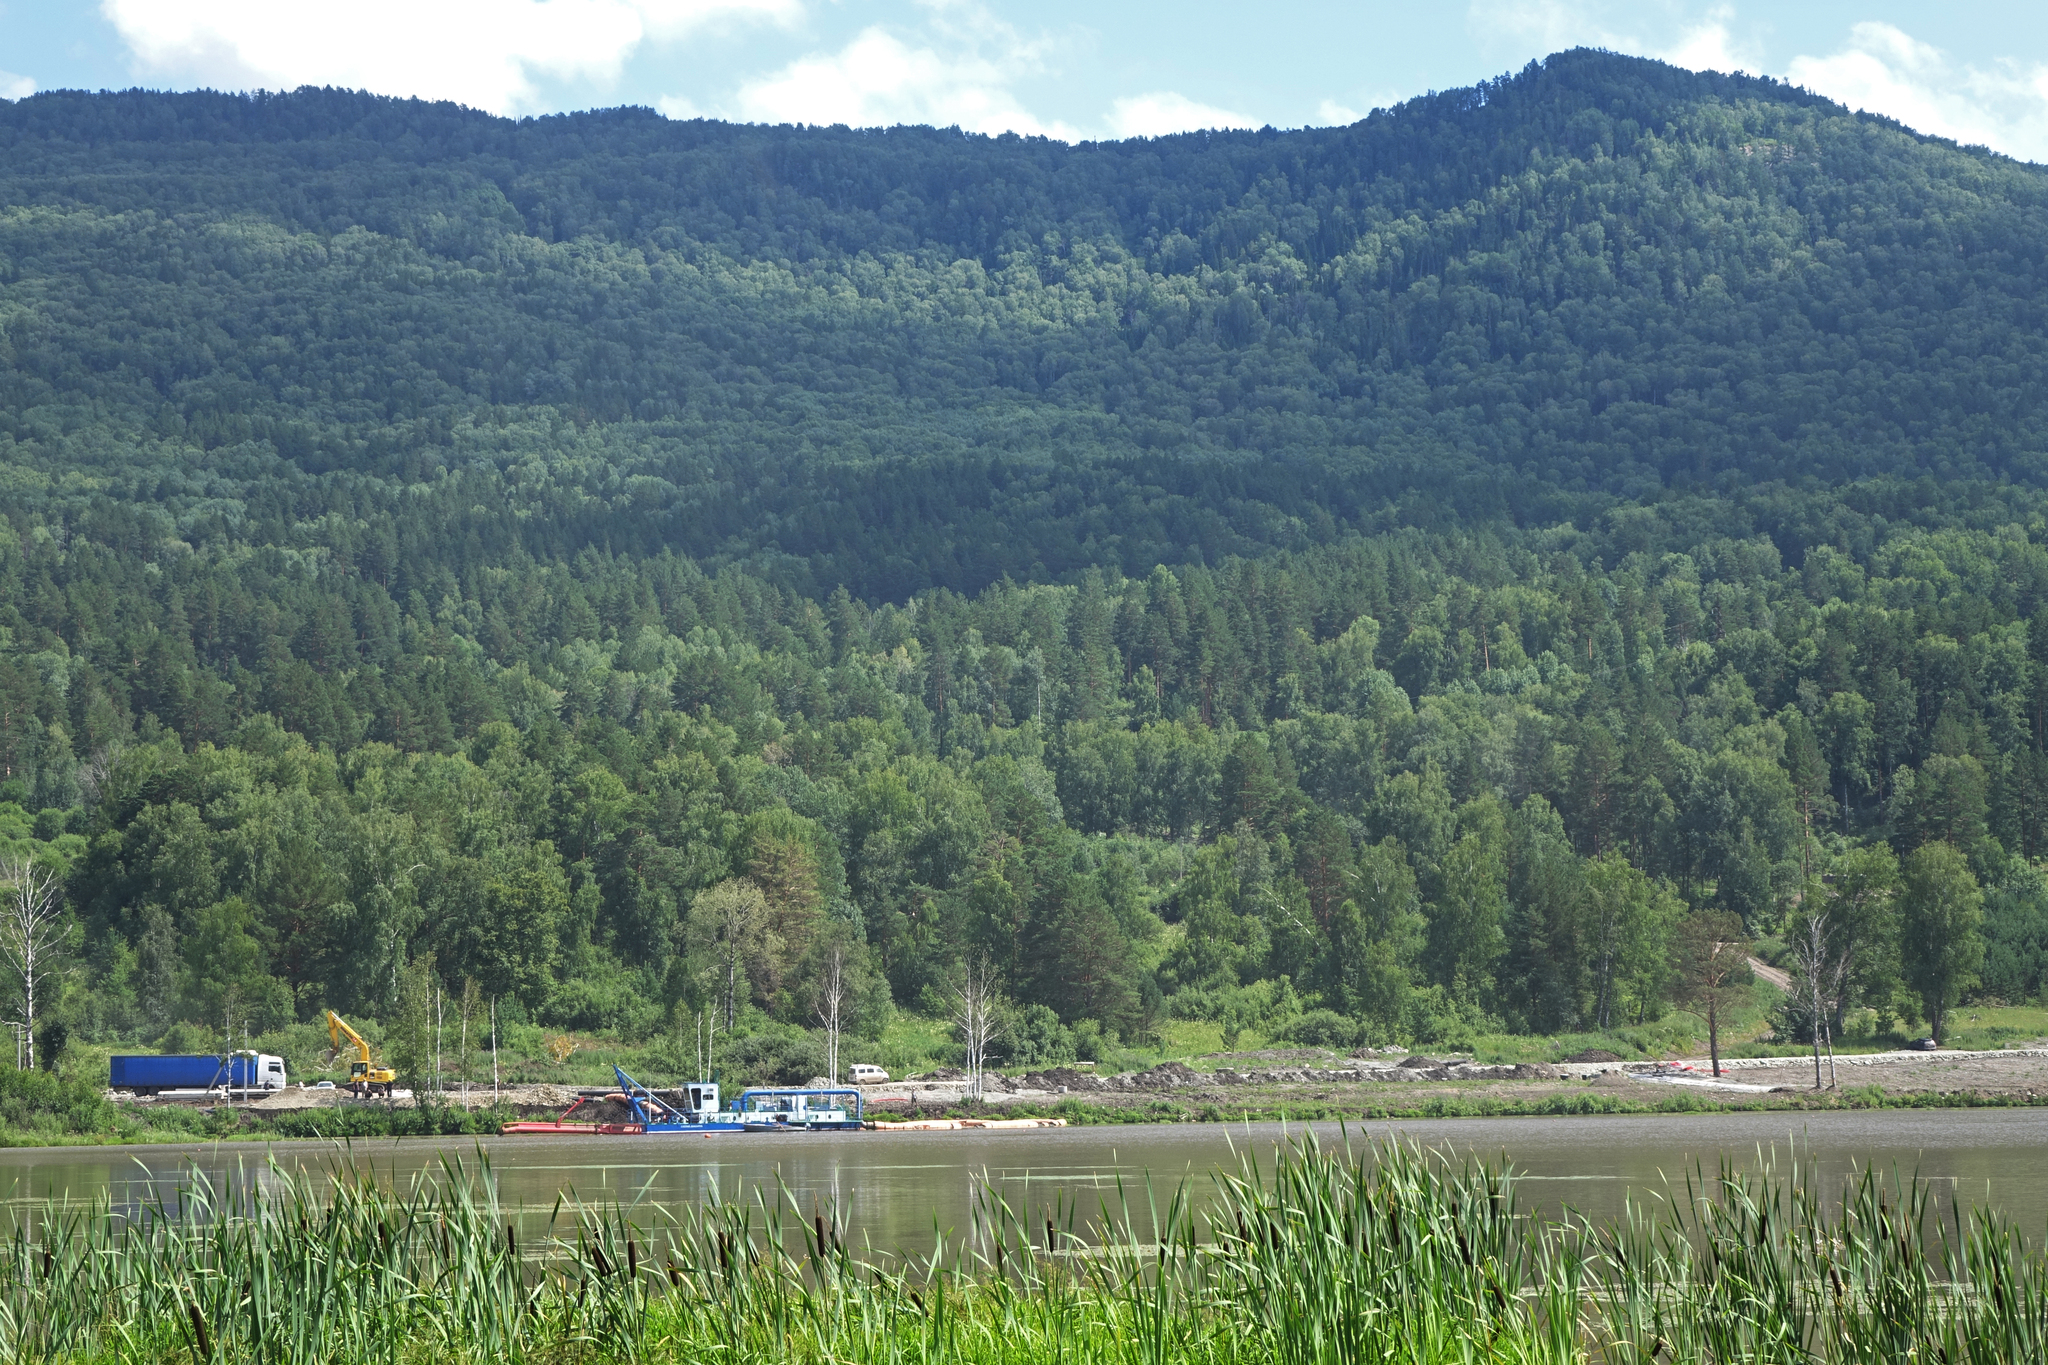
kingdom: Plantae
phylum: Tracheophyta
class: Liliopsida
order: Poales
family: Typhaceae
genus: Typha
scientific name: Typha latifolia
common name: Broadleaf cattail
